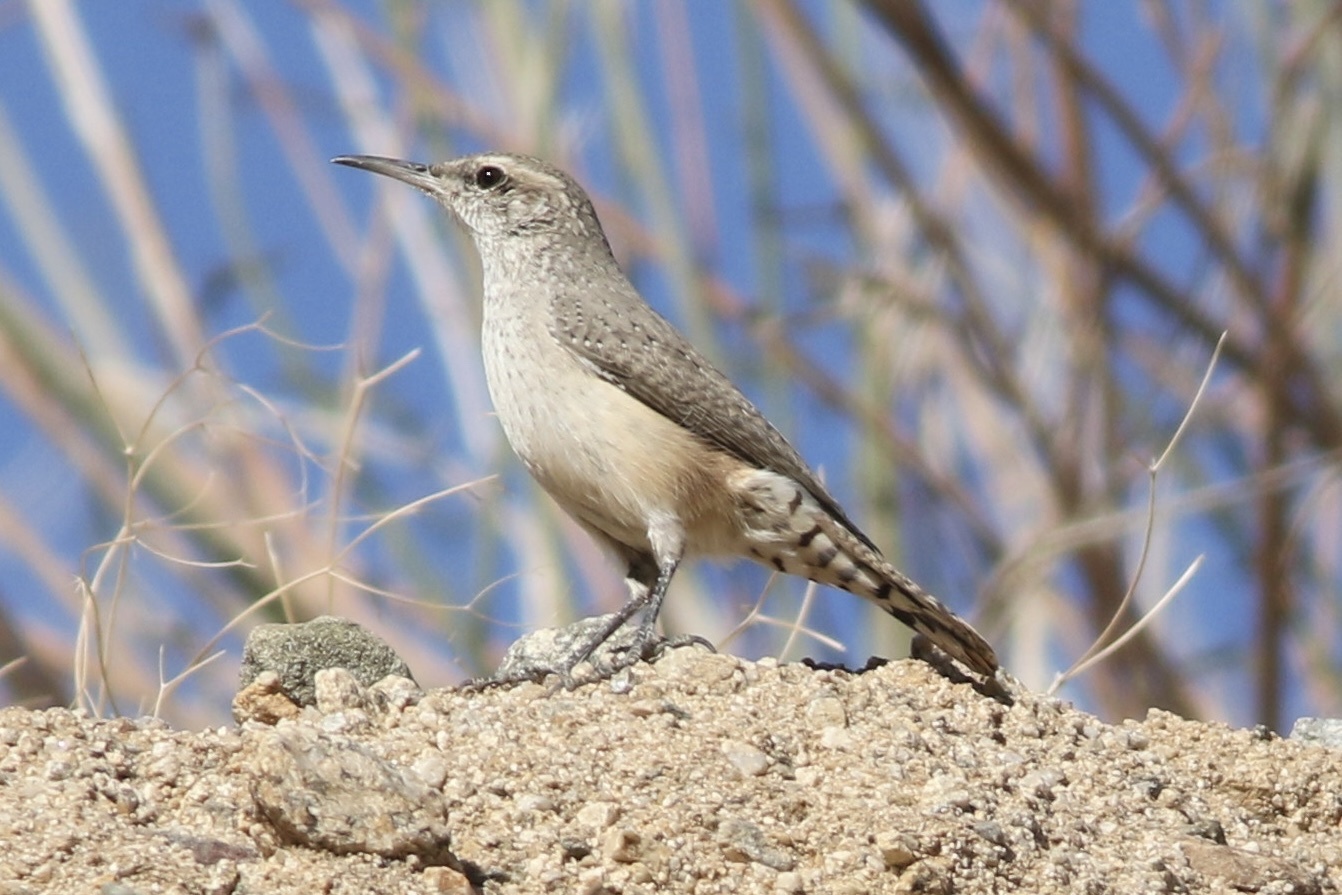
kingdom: Animalia
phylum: Chordata
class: Aves
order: Passeriformes
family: Troglodytidae
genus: Salpinctes
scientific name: Salpinctes obsoletus
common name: Rock wren
